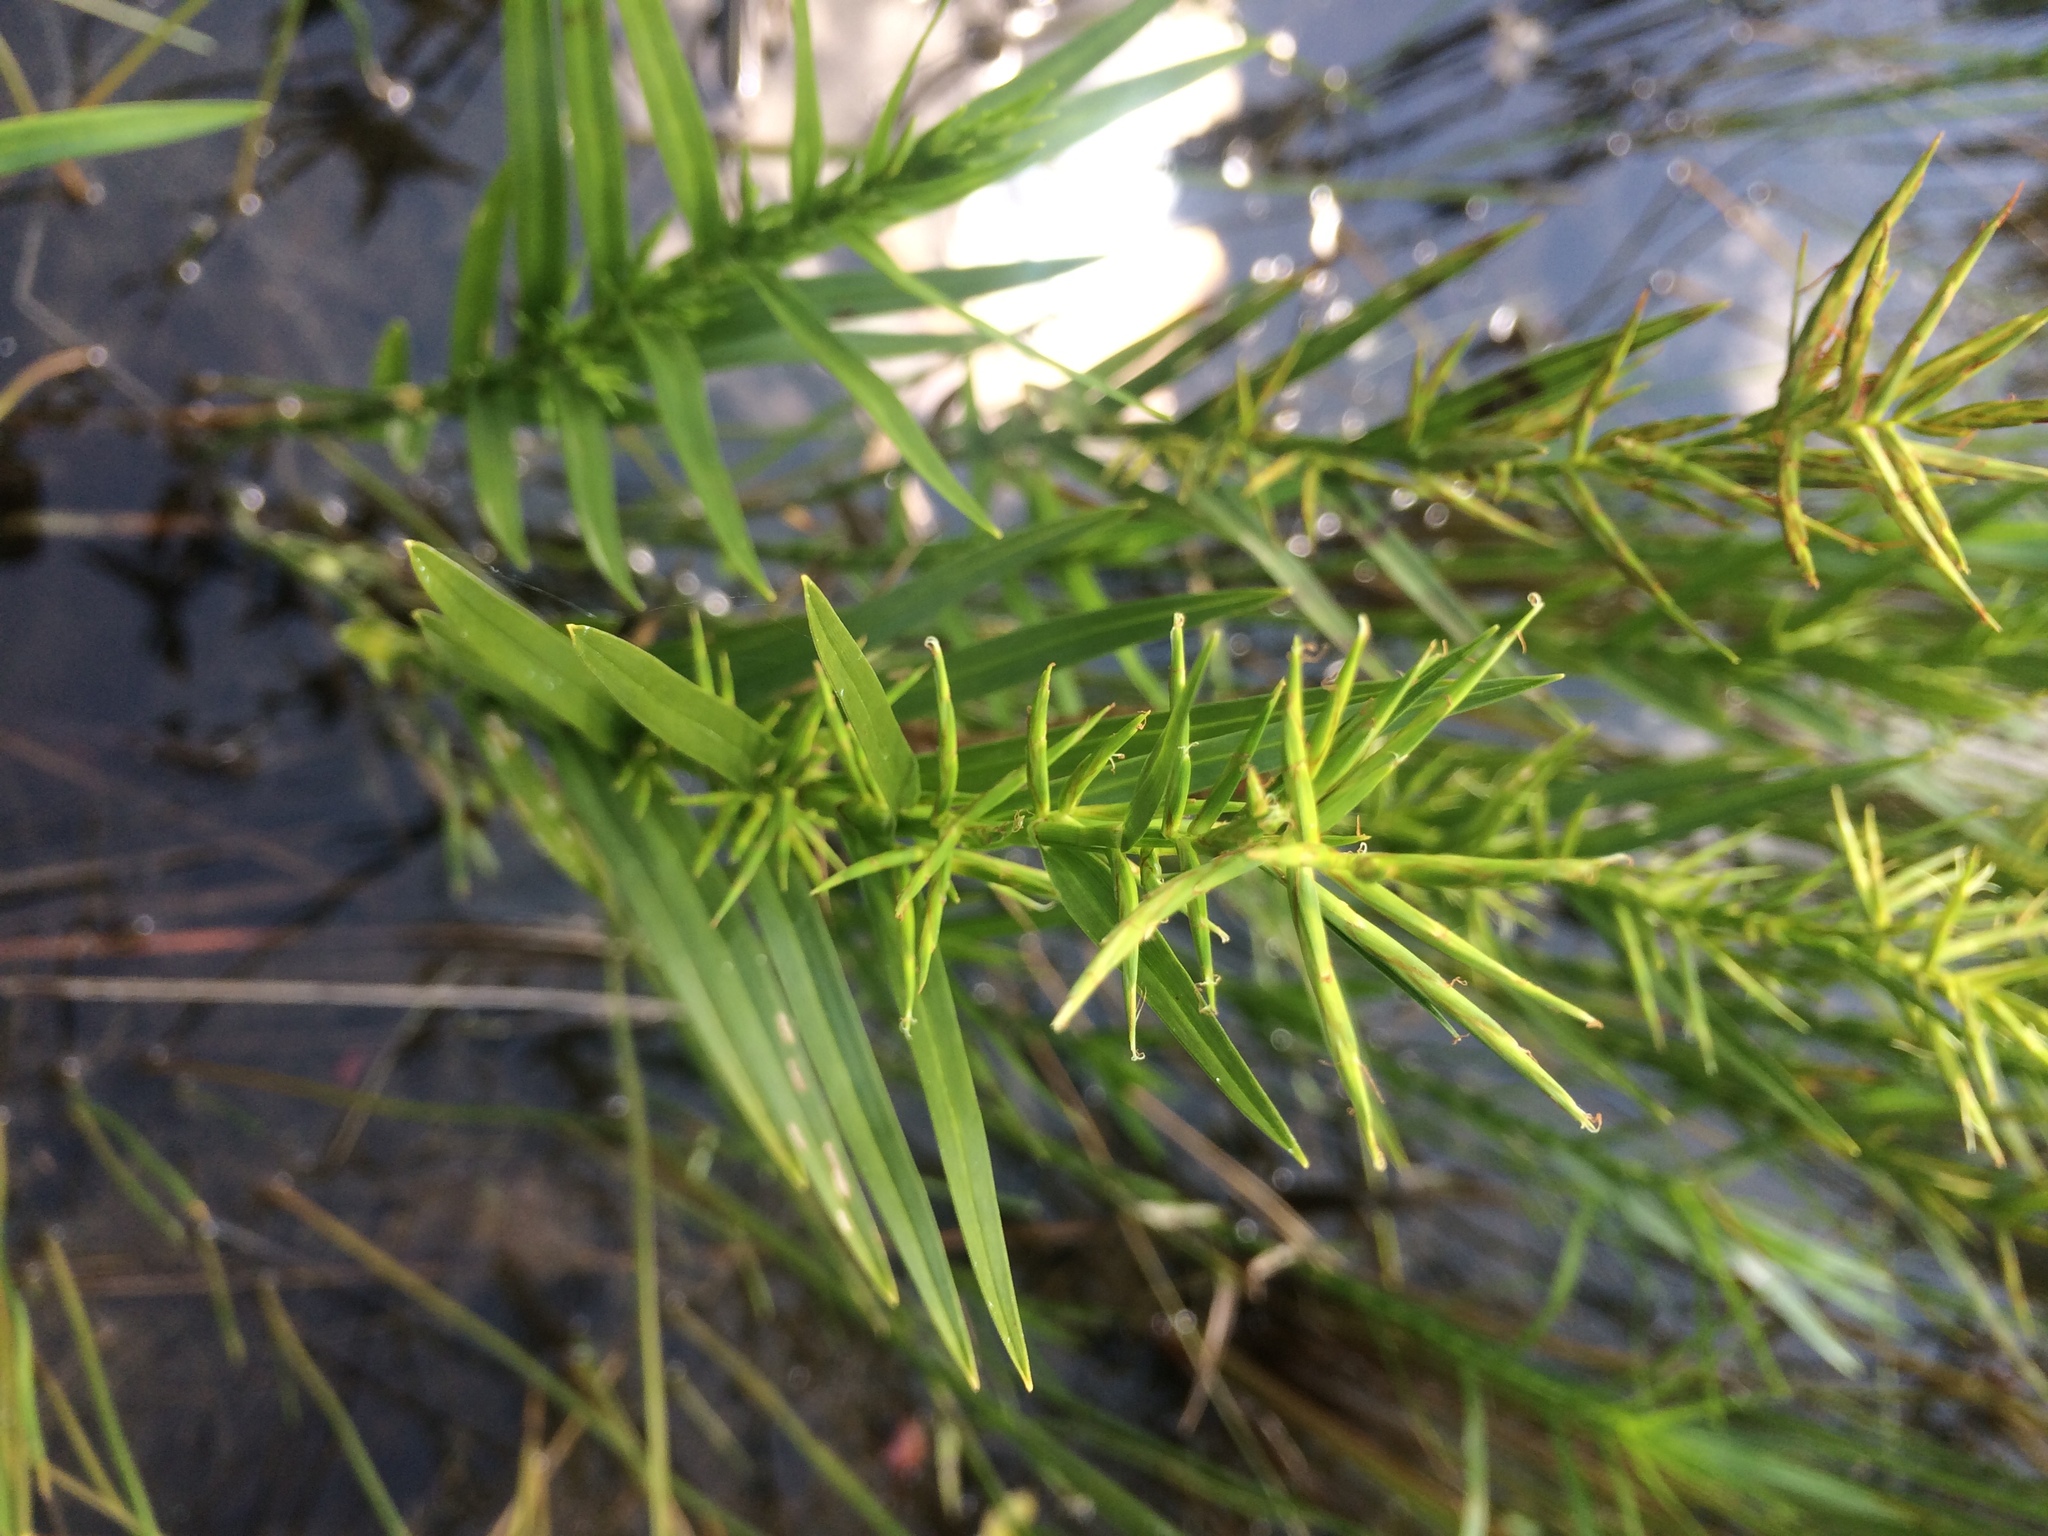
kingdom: Plantae
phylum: Tracheophyta
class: Liliopsida
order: Poales
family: Cyperaceae
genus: Dulichium
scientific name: Dulichium arundinaceum
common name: Three-way sedge
